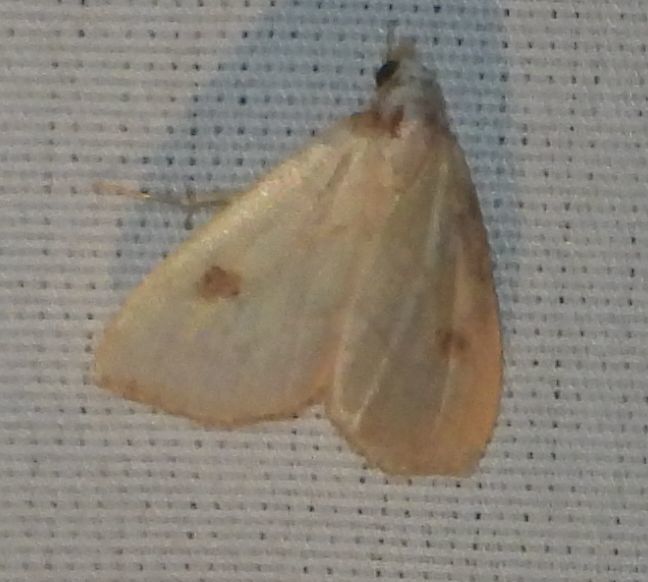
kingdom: Animalia
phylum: Arthropoda
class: Insecta
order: Lepidoptera
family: Erebidae
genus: Rivula
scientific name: Rivula propinqualis
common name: Spotted grass moth
